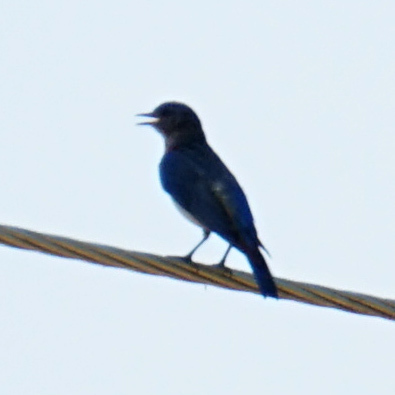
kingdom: Animalia
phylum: Chordata
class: Aves
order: Passeriformes
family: Turdidae
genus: Sialia
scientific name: Sialia sialis
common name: Eastern bluebird
